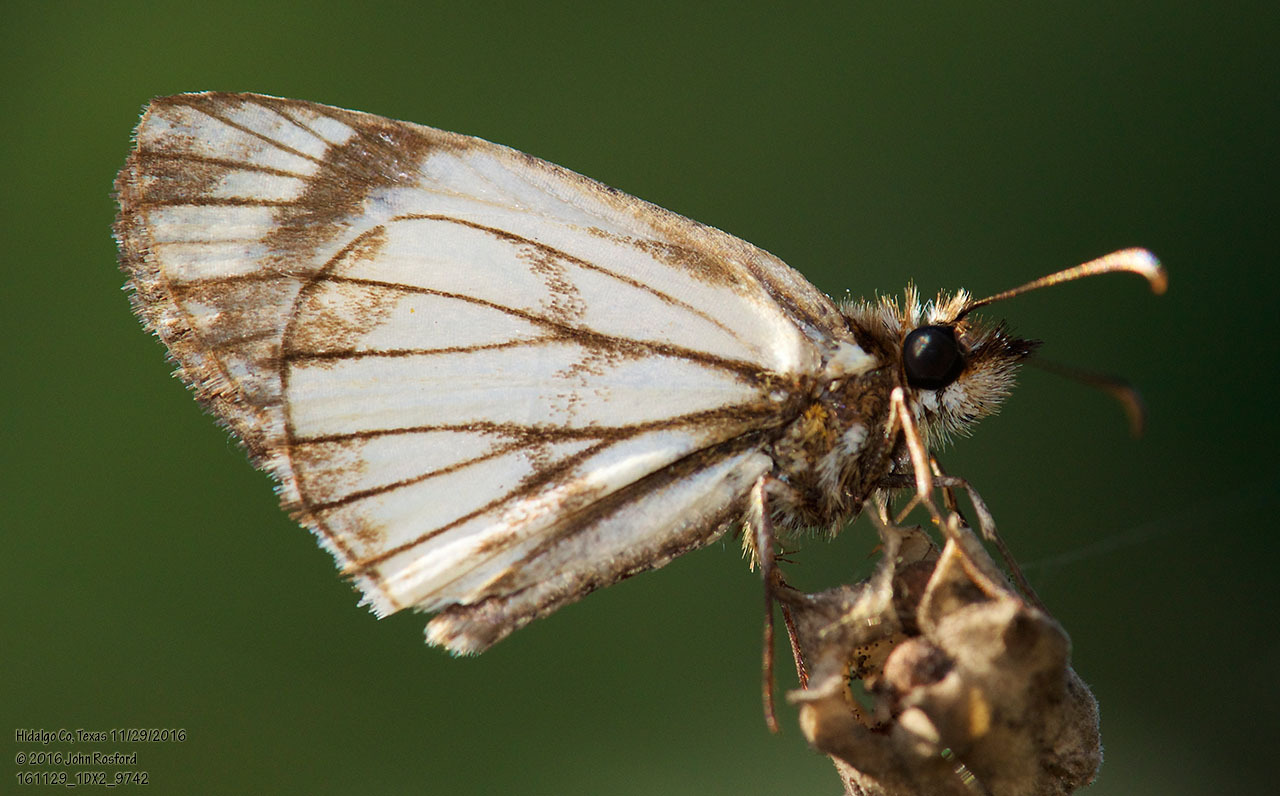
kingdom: Animalia
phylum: Arthropoda
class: Insecta
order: Lepidoptera
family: Hesperiidae
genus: Heliopetes
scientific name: Heliopetes alana
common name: Alana white-skipper
